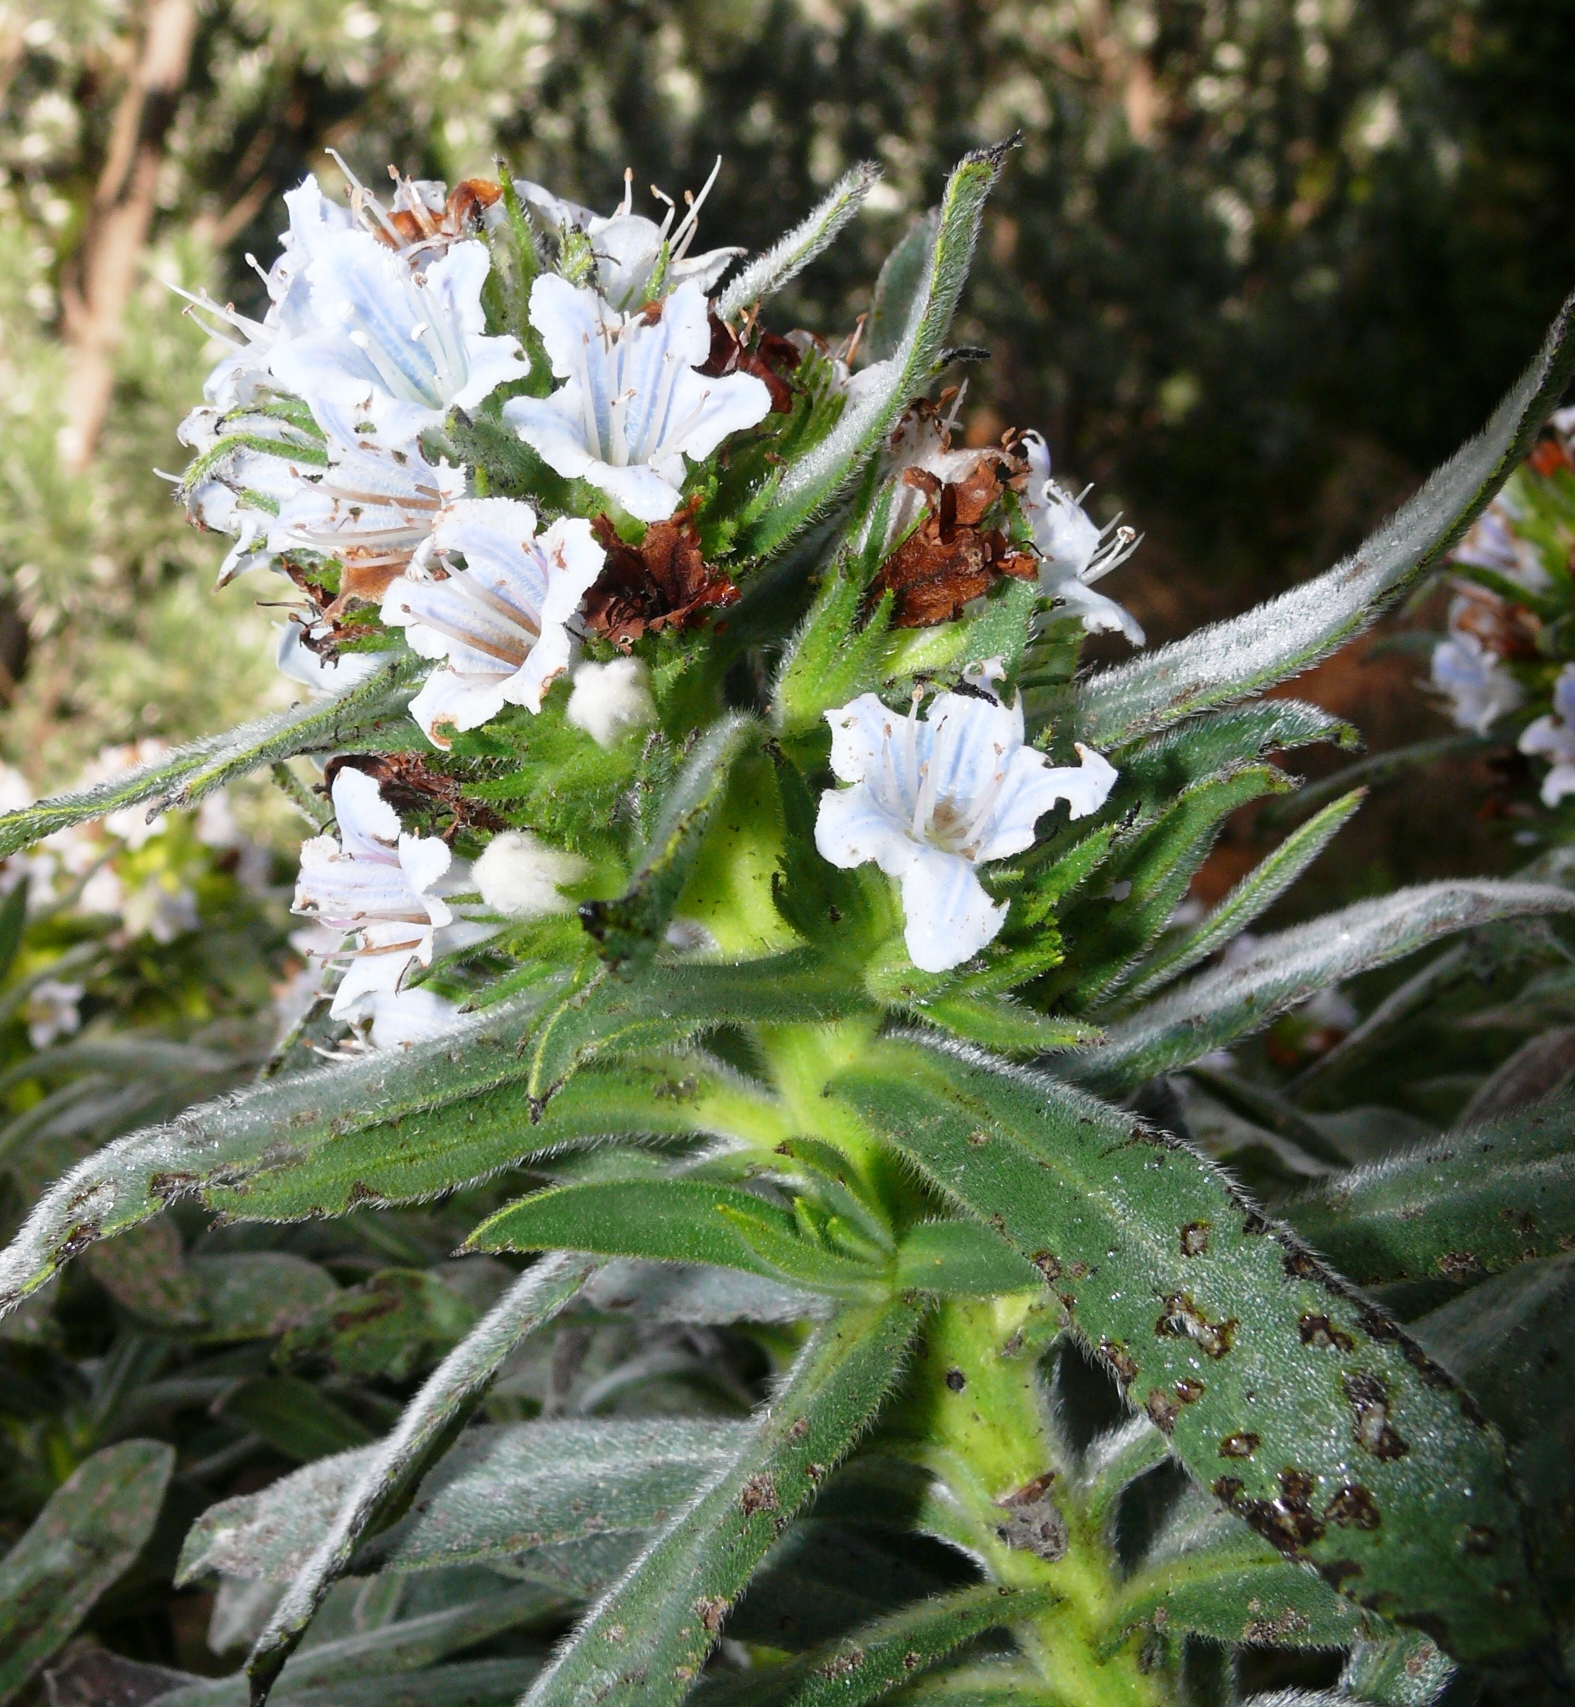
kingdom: Plantae
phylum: Tracheophyta
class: Magnoliopsida
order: Boraginales
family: Boraginaceae
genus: Lobostemon
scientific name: Lobostemon montanus
